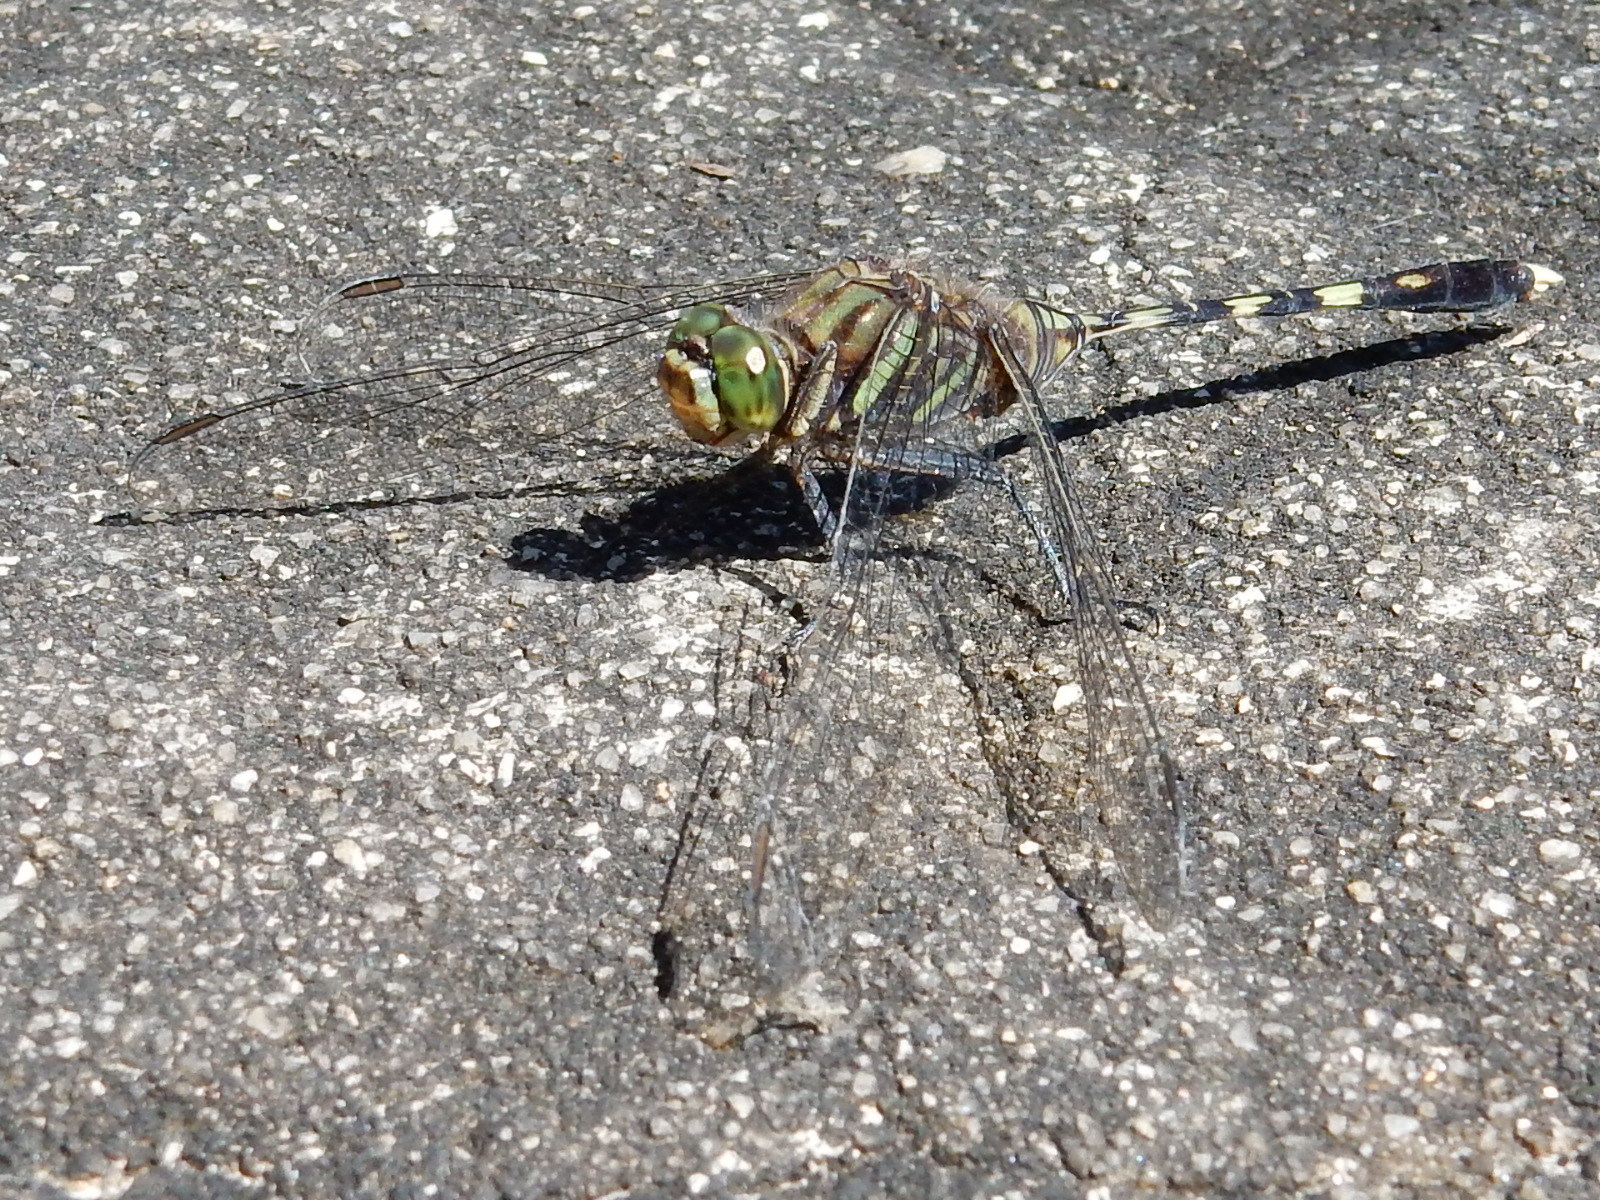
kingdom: Animalia
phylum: Arthropoda
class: Insecta
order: Odonata
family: Libellulidae
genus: Orthetrum
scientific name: Orthetrum serapia
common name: Green skimmer
